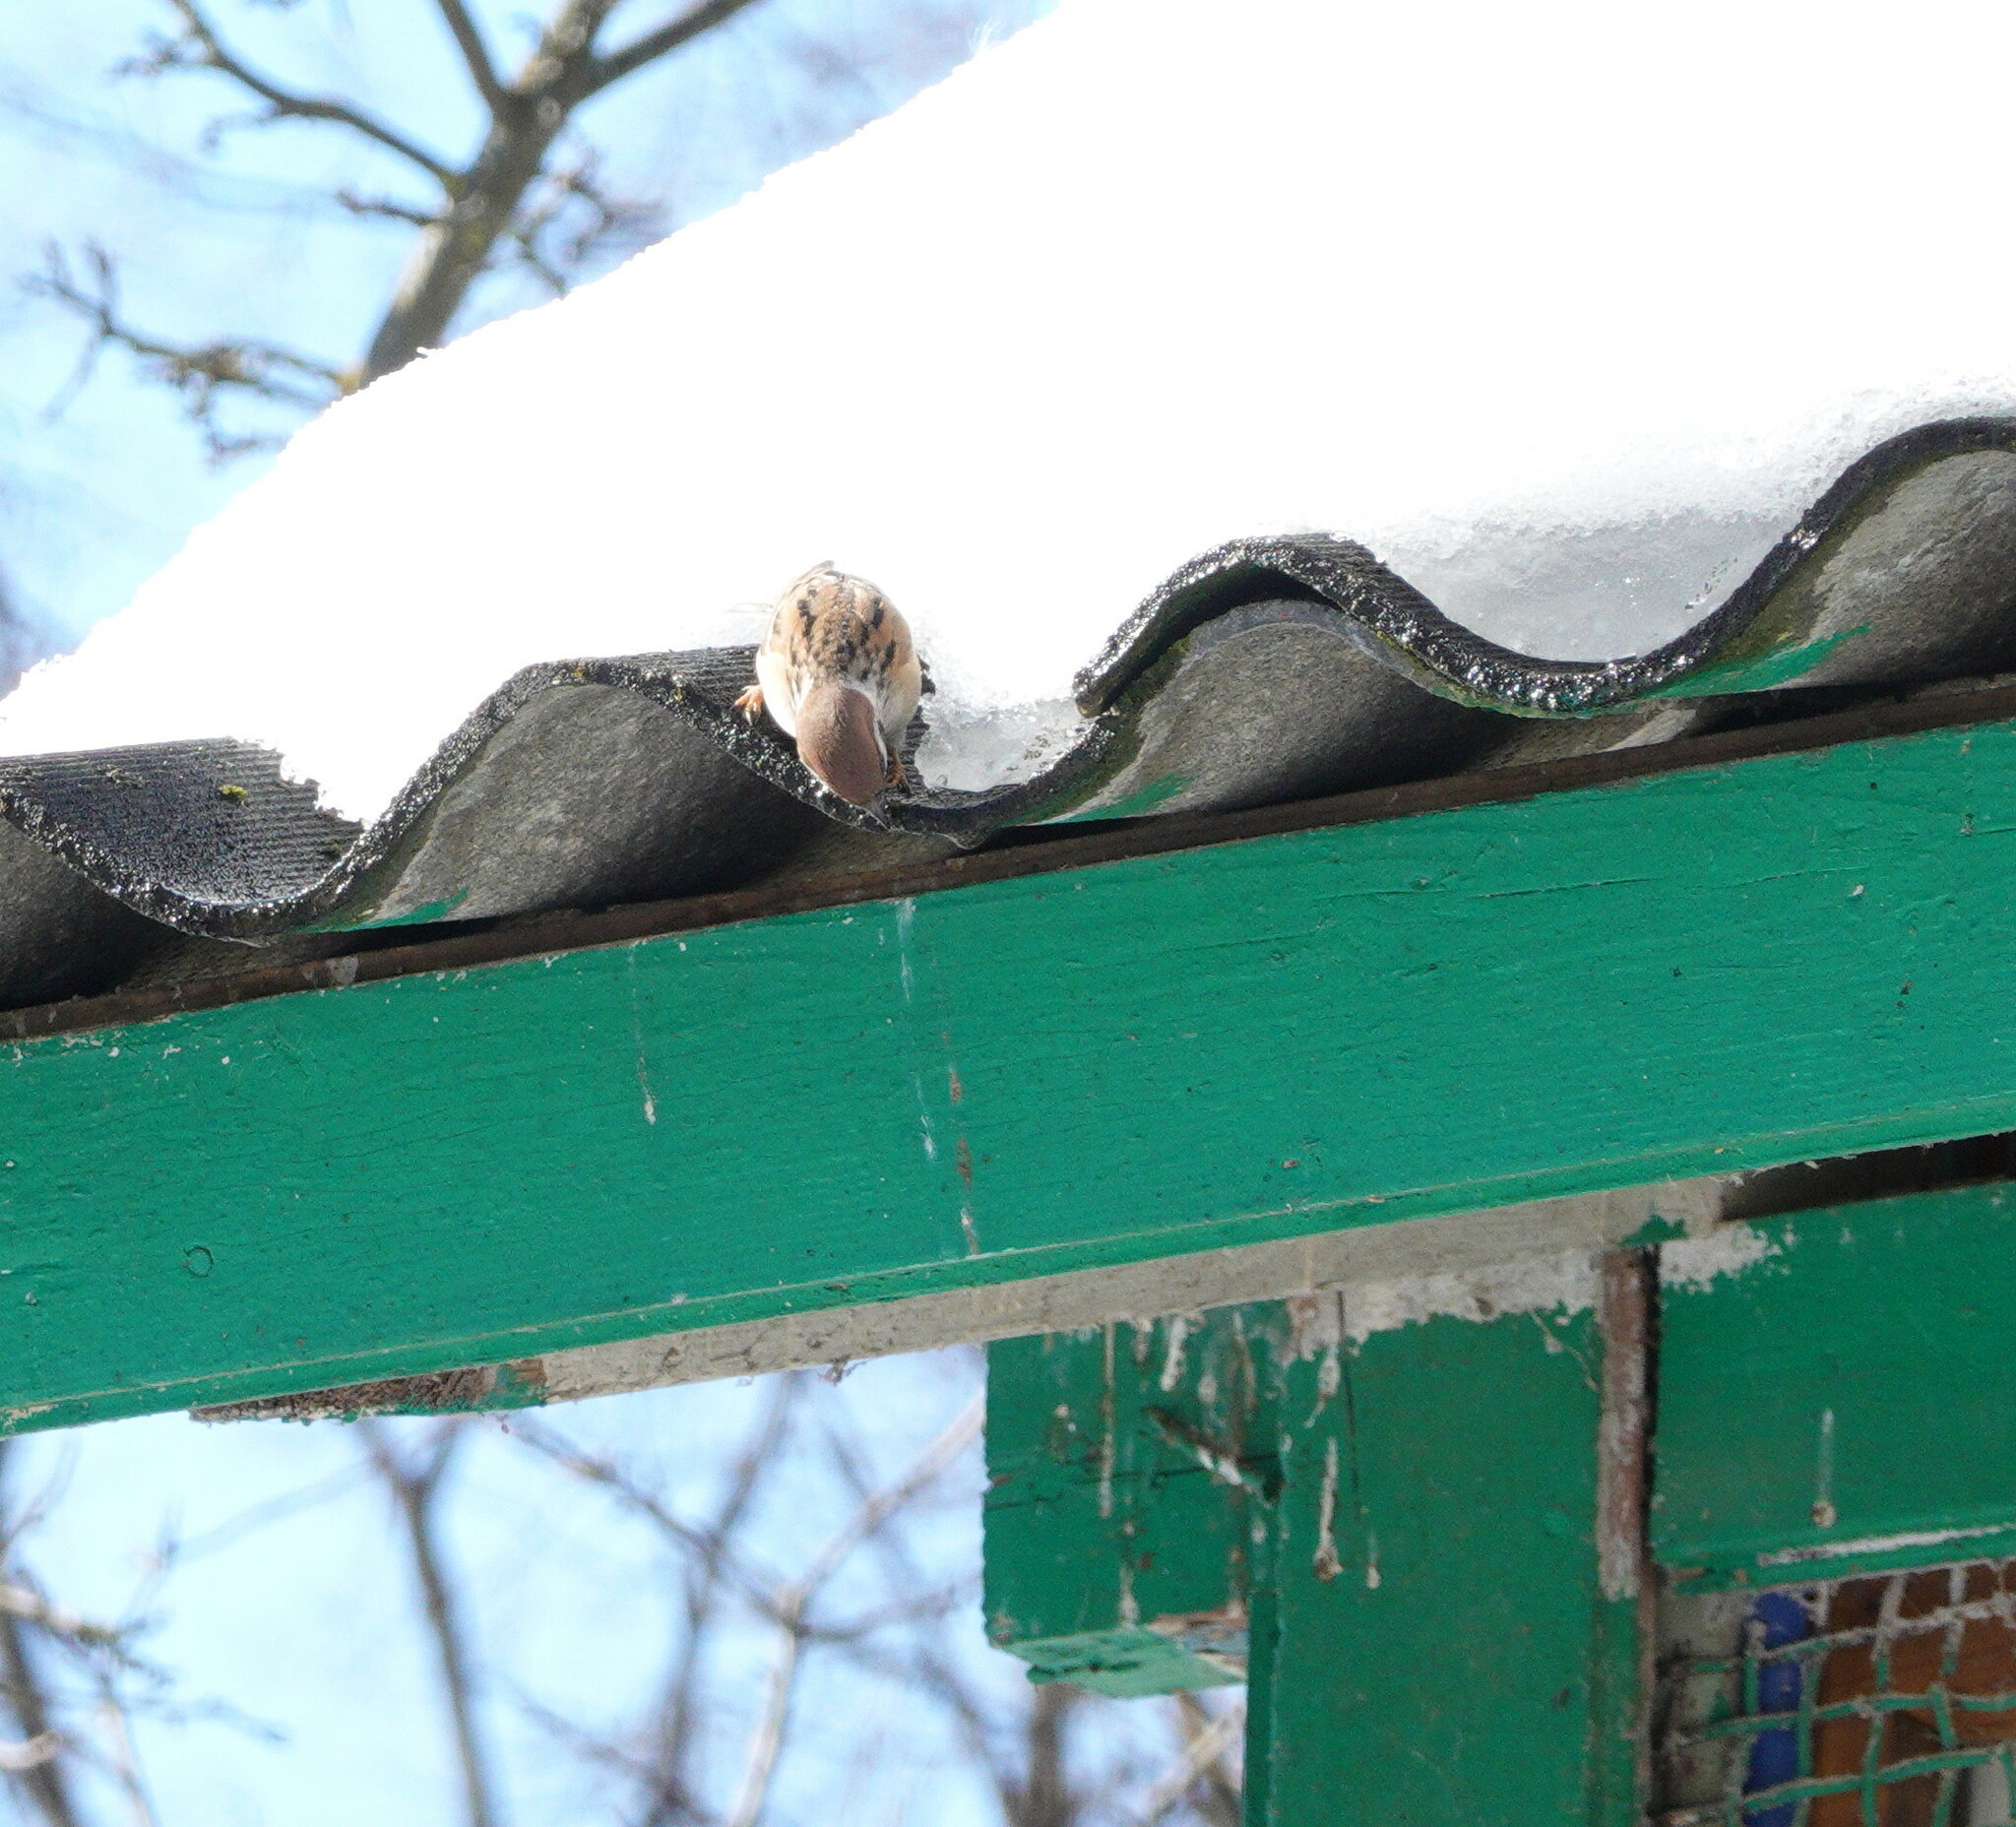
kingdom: Animalia
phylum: Chordata
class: Aves
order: Passeriformes
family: Passeridae
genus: Passer
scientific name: Passer montanus
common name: Eurasian tree sparrow
